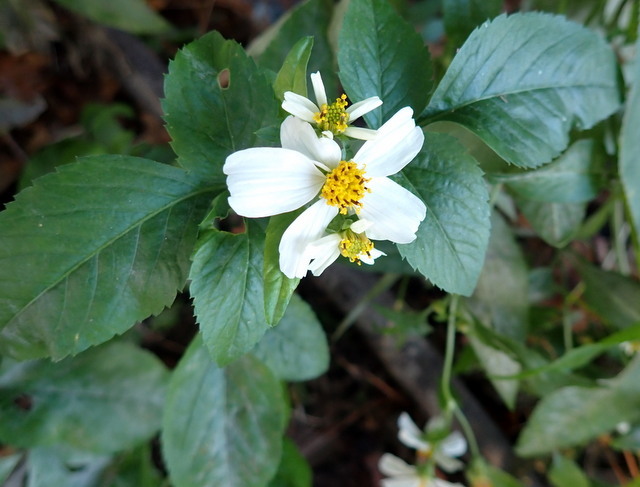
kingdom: Plantae
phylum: Tracheophyta
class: Magnoliopsida
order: Asterales
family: Asteraceae
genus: Bidens
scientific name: Bidens alba
